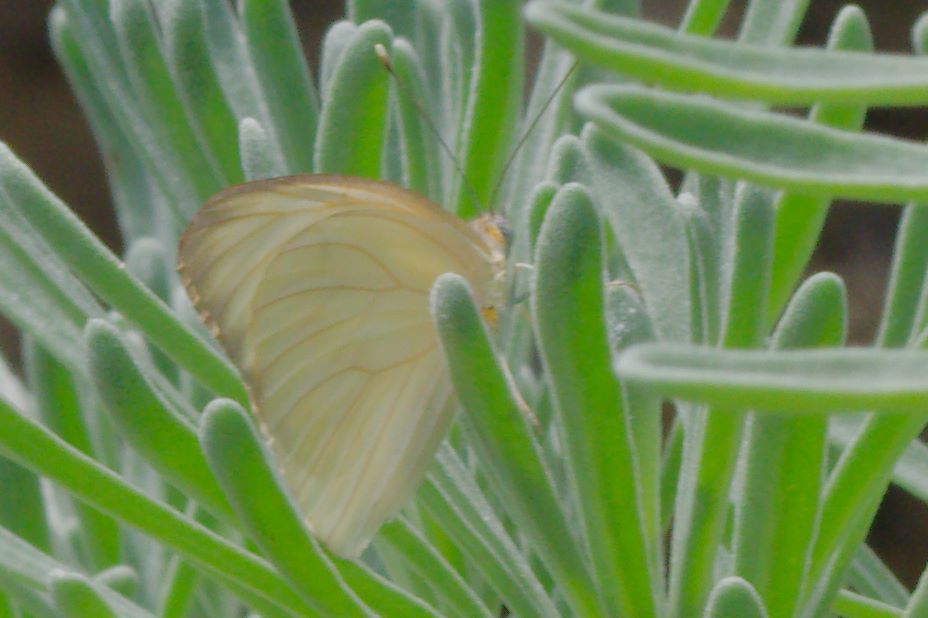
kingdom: Animalia
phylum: Arthropoda
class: Insecta
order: Lepidoptera
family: Pieridae
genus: Ascia
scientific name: Ascia monuste
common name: Great southern white
